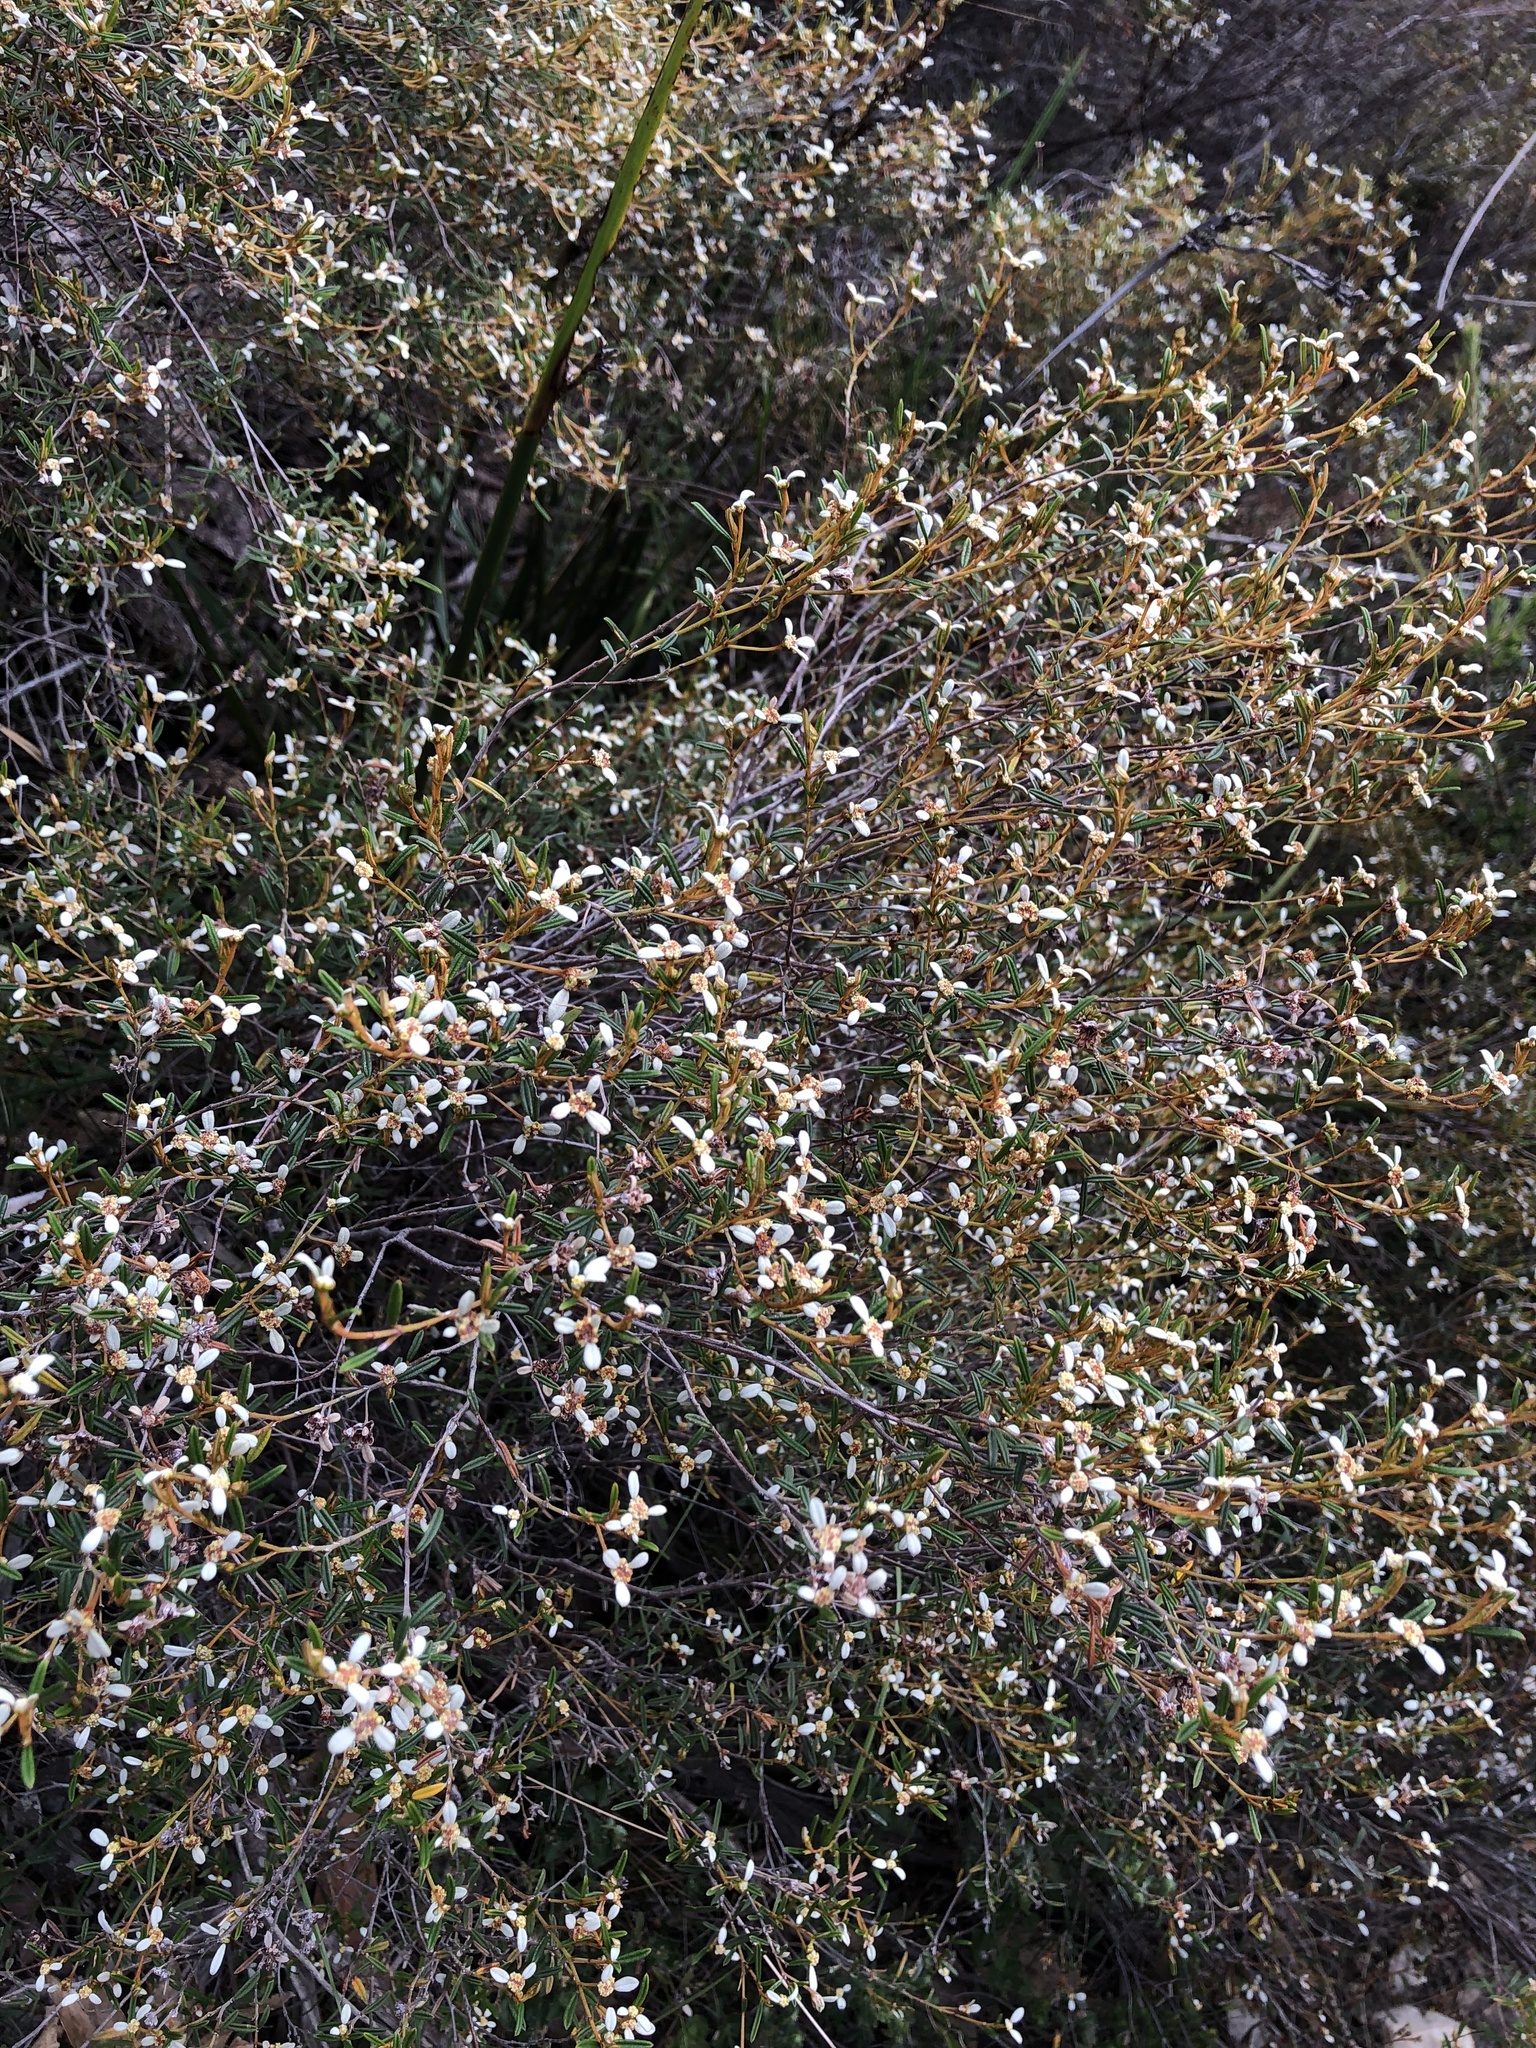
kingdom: Plantae
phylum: Tracheophyta
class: Magnoliopsida
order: Rosales
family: Rhamnaceae
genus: Spyridium
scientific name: Spyridium vexilliferum
